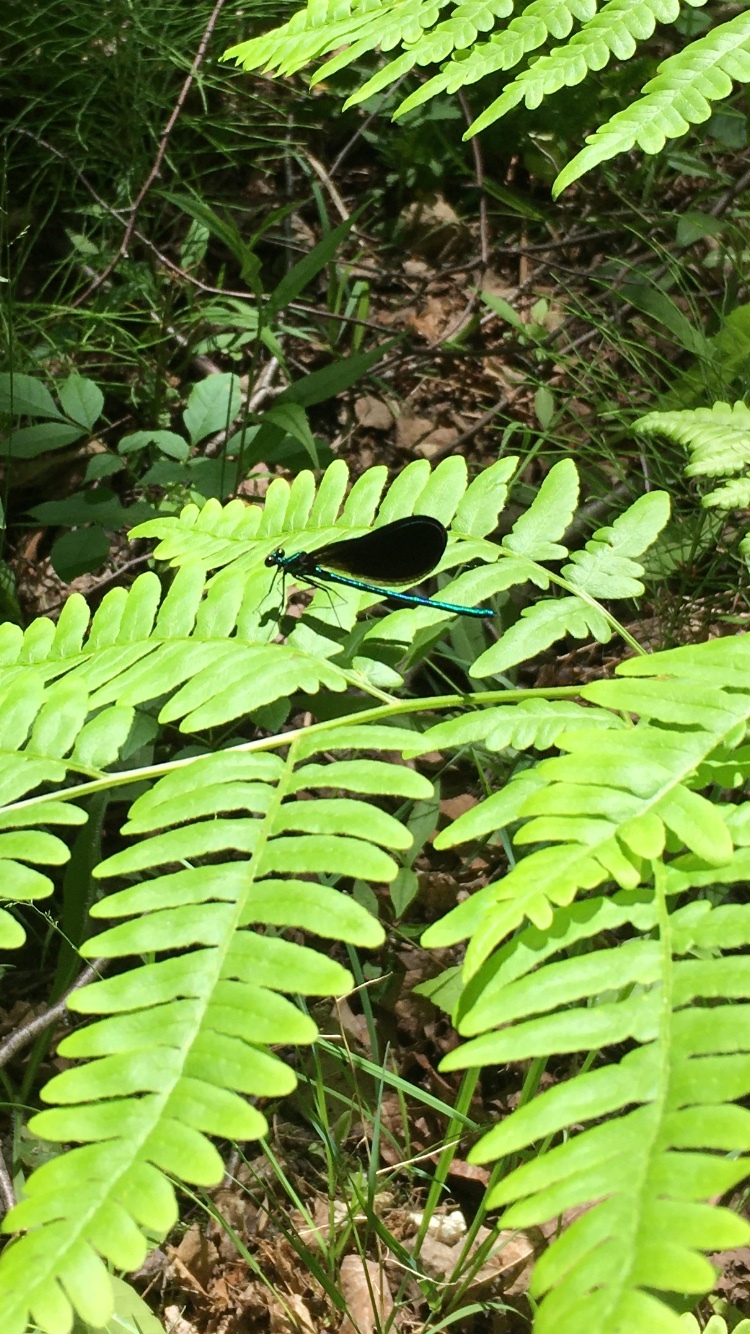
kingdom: Animalia
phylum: Arthropoda
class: Insecta
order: Odonata
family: Calopterygidae
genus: Calopteryx
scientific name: Calopteryx maculata
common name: Ebony jewelwing
